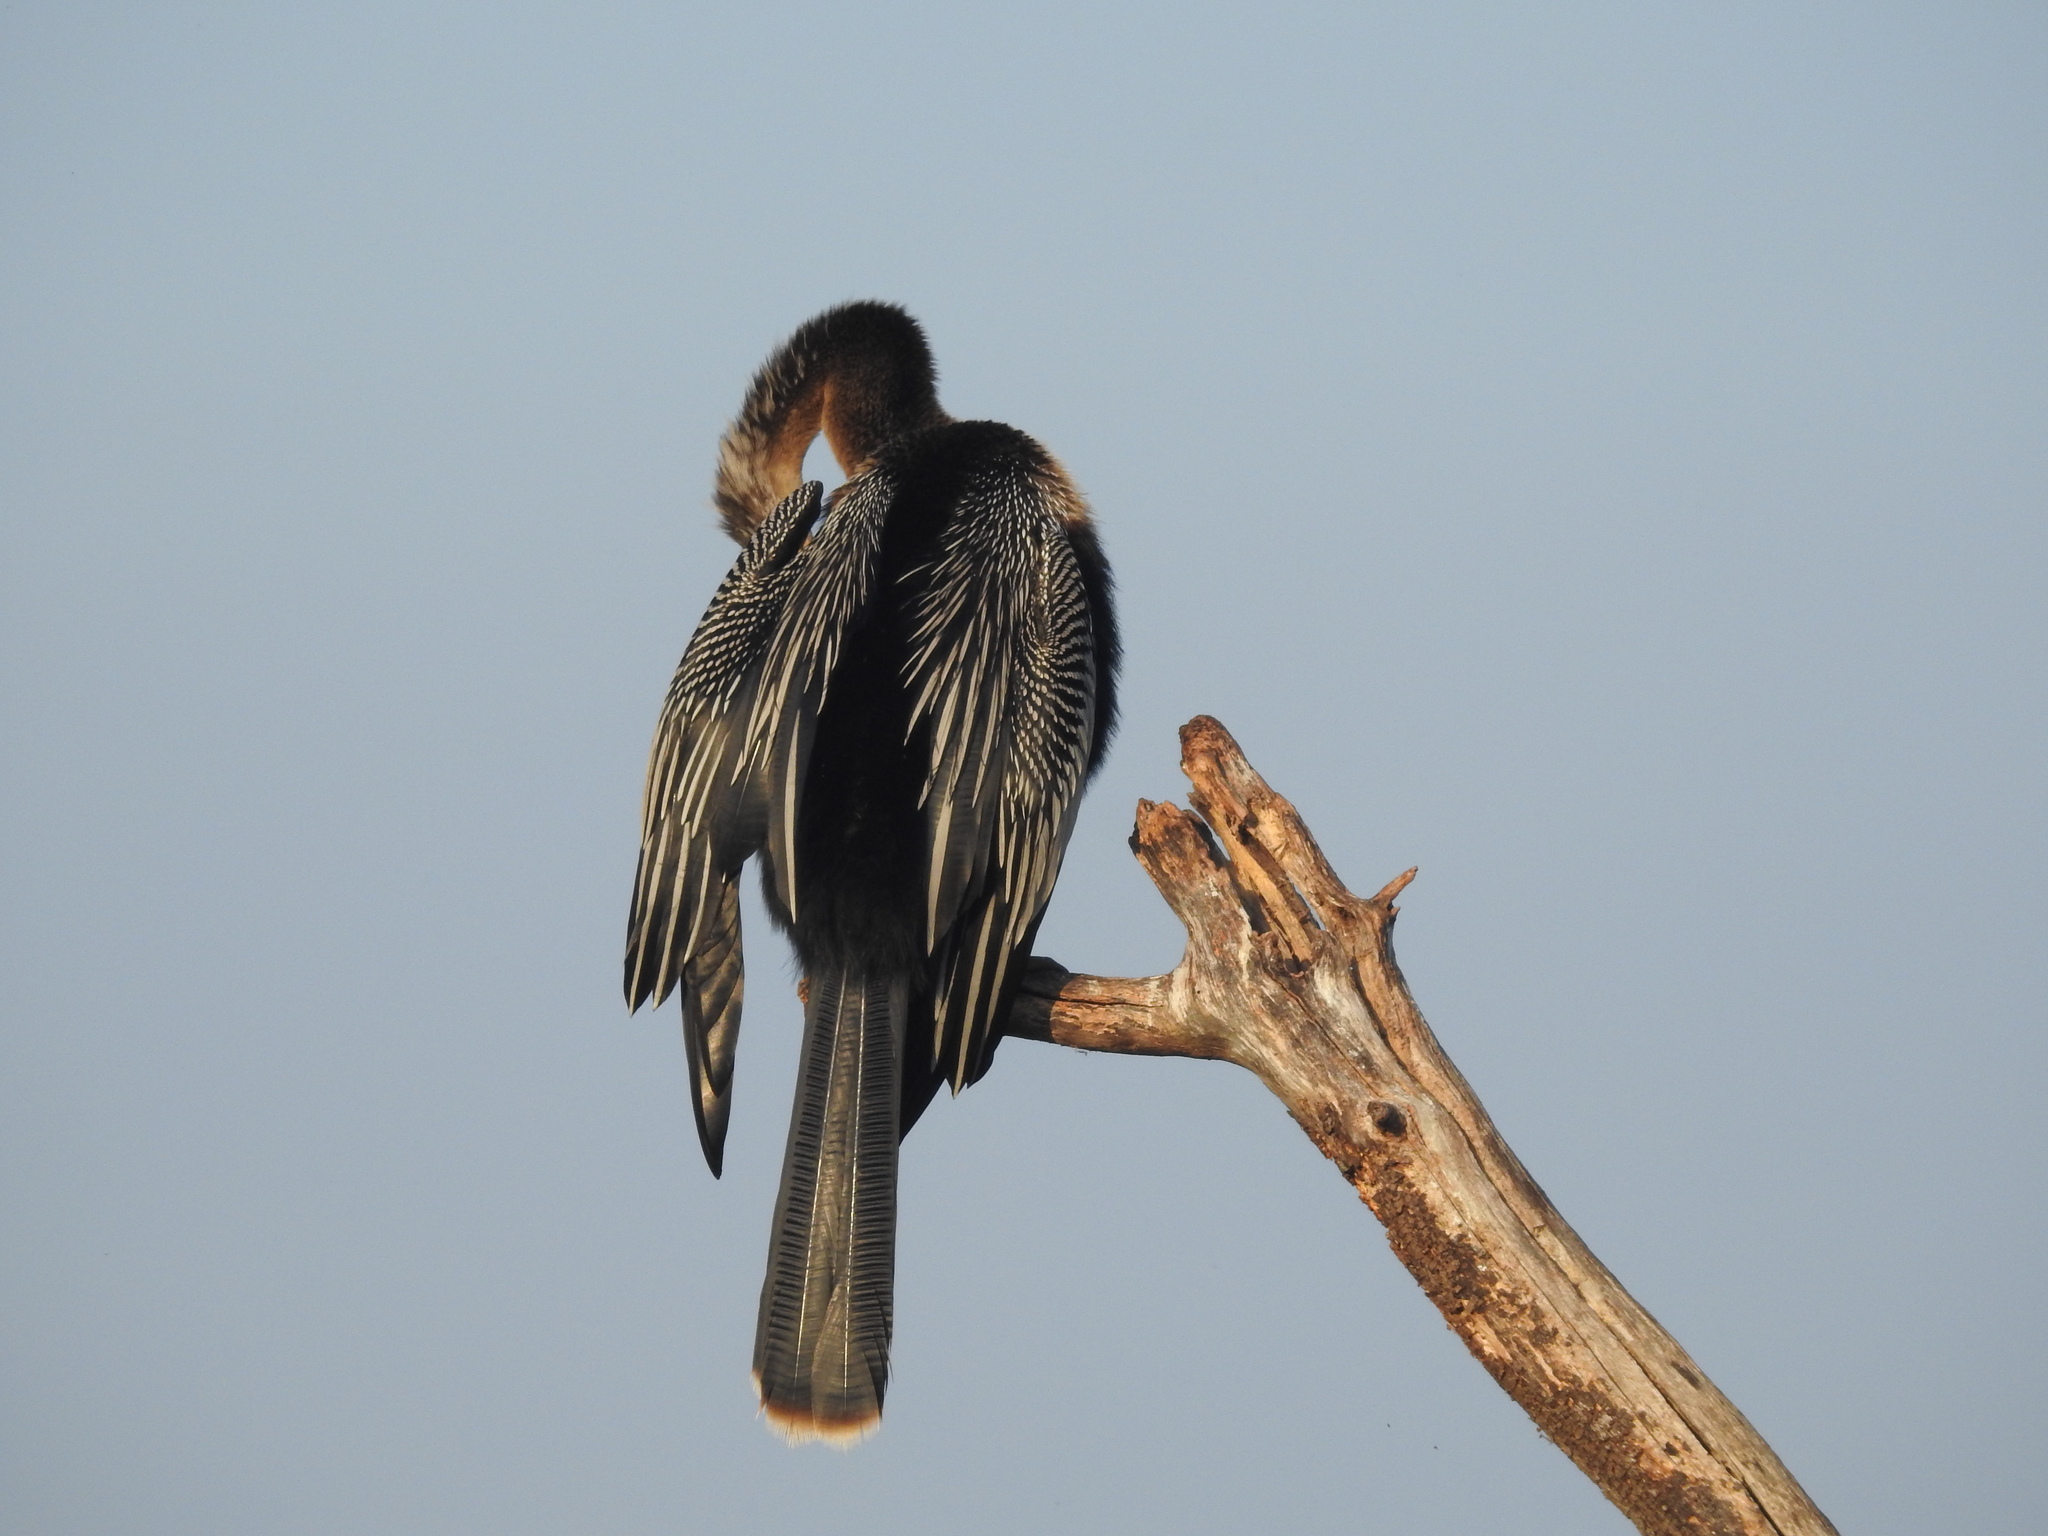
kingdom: Animalia
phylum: Chordata
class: Aves
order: Suliformes
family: Anhingidae
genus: Anhinga
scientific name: Anhinga anhinga
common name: Anhinga
